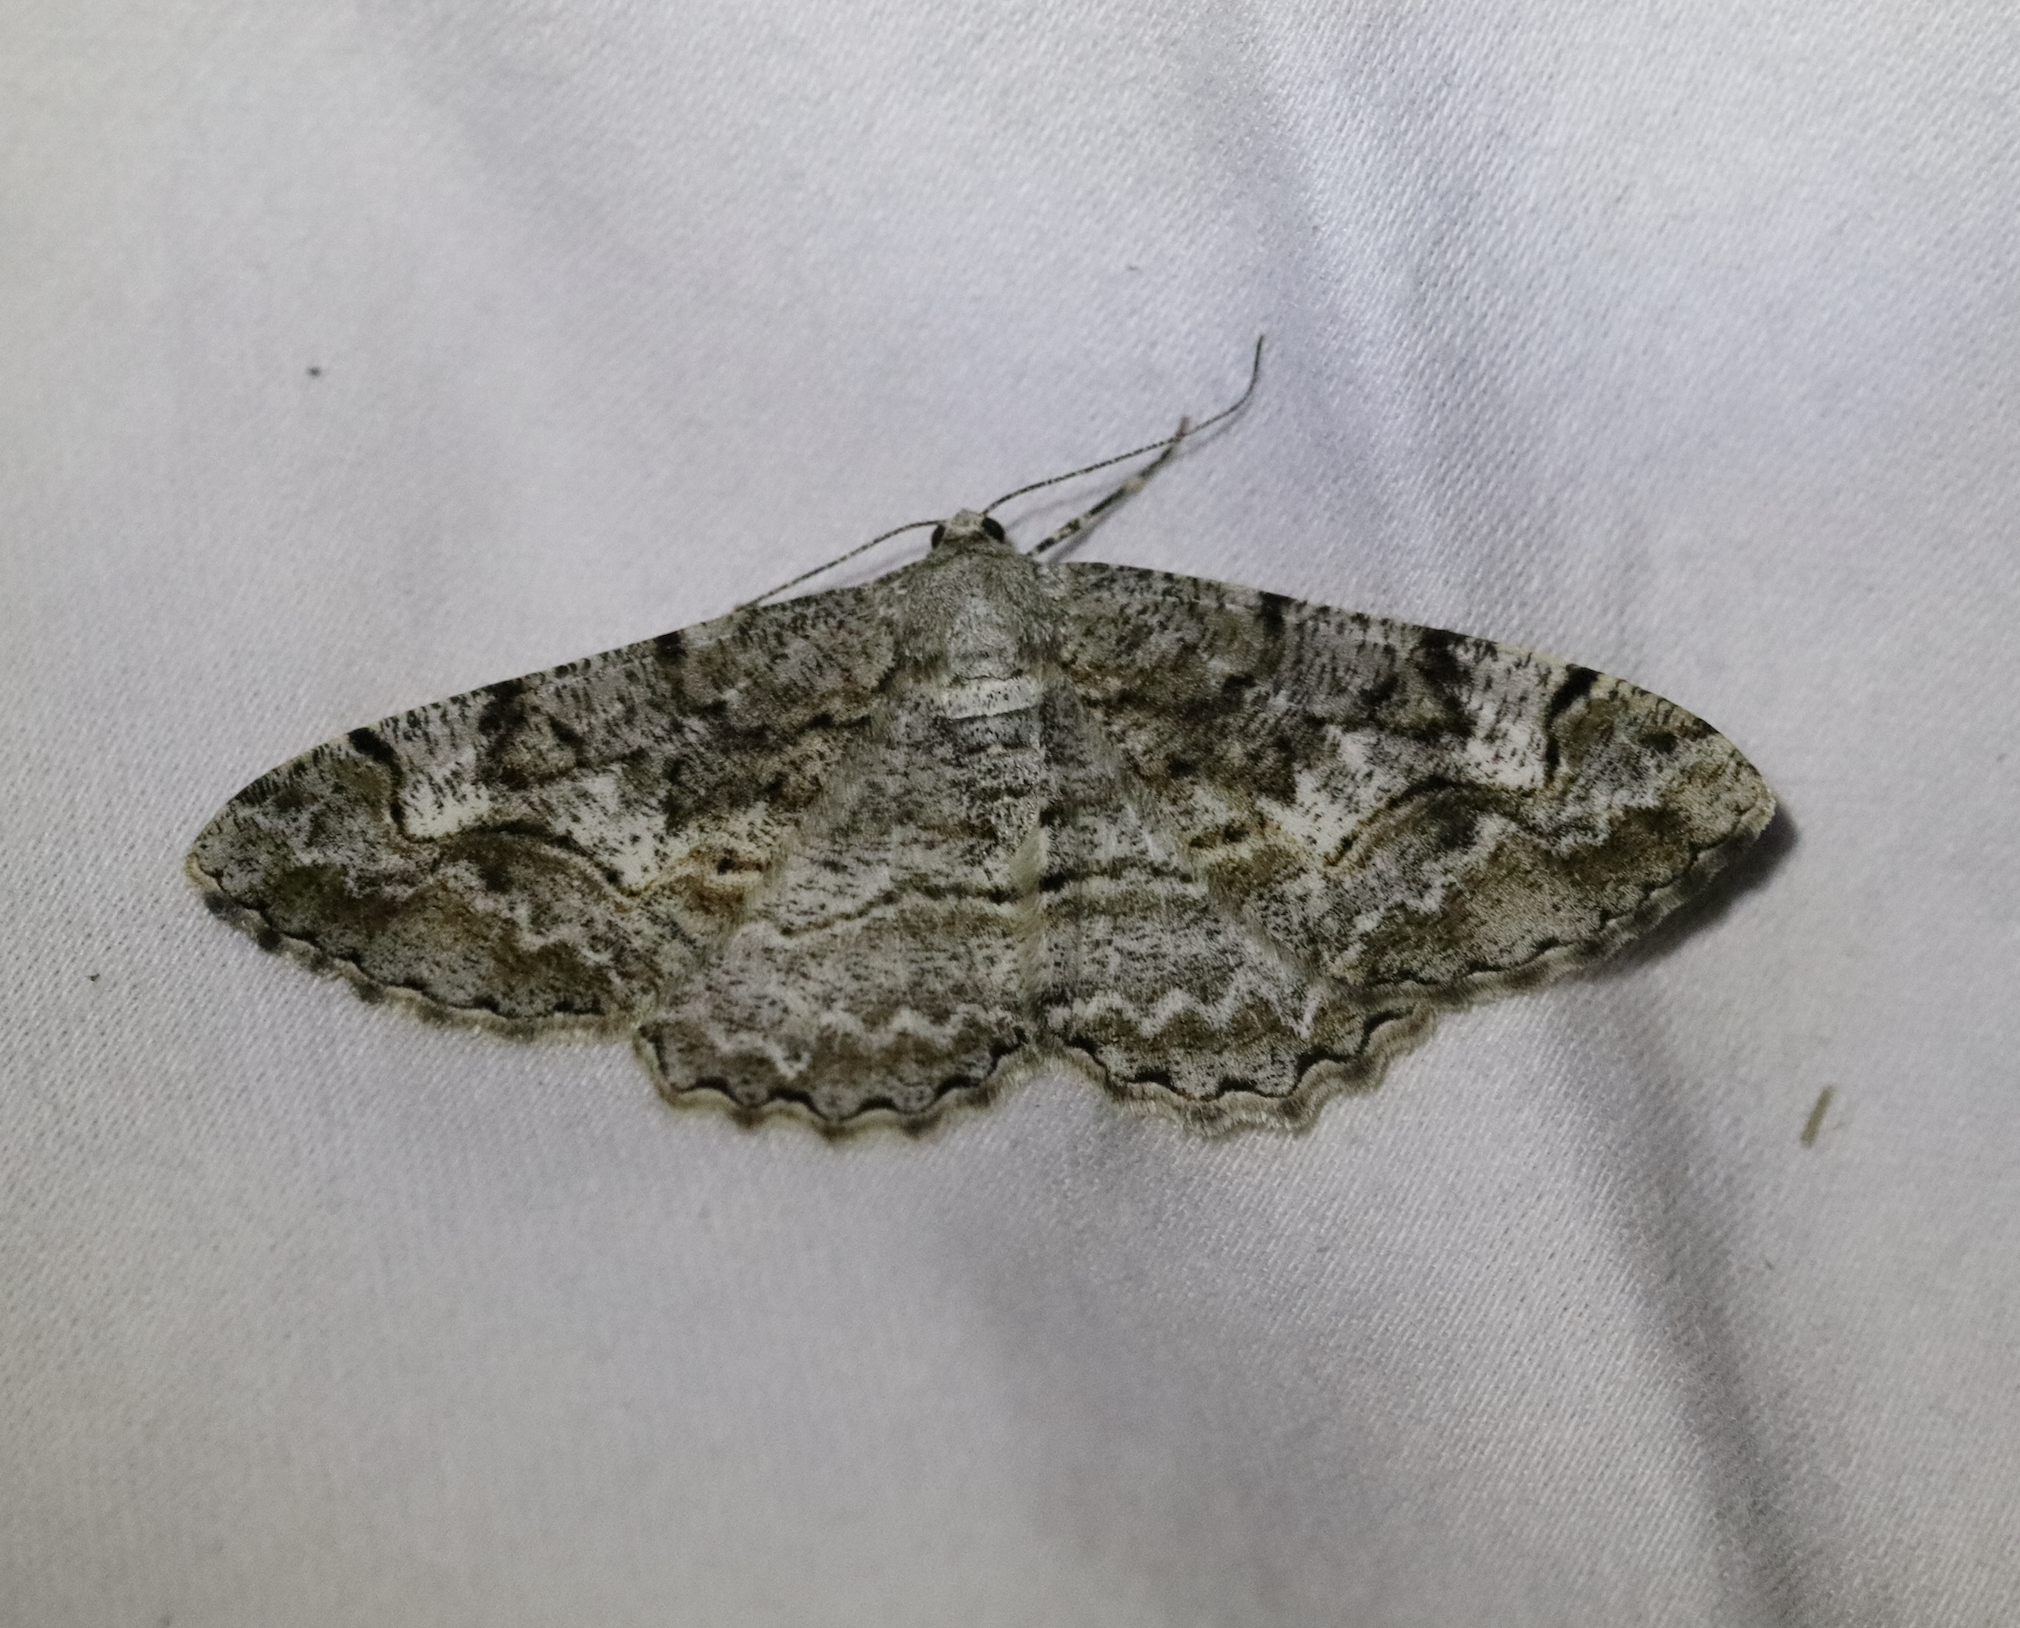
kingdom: Animalia
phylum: Arthropoda
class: Insecta
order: Lepidoptera
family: Geometridae
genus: Alcis
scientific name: Alcis repandata
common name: Mottled beauty
